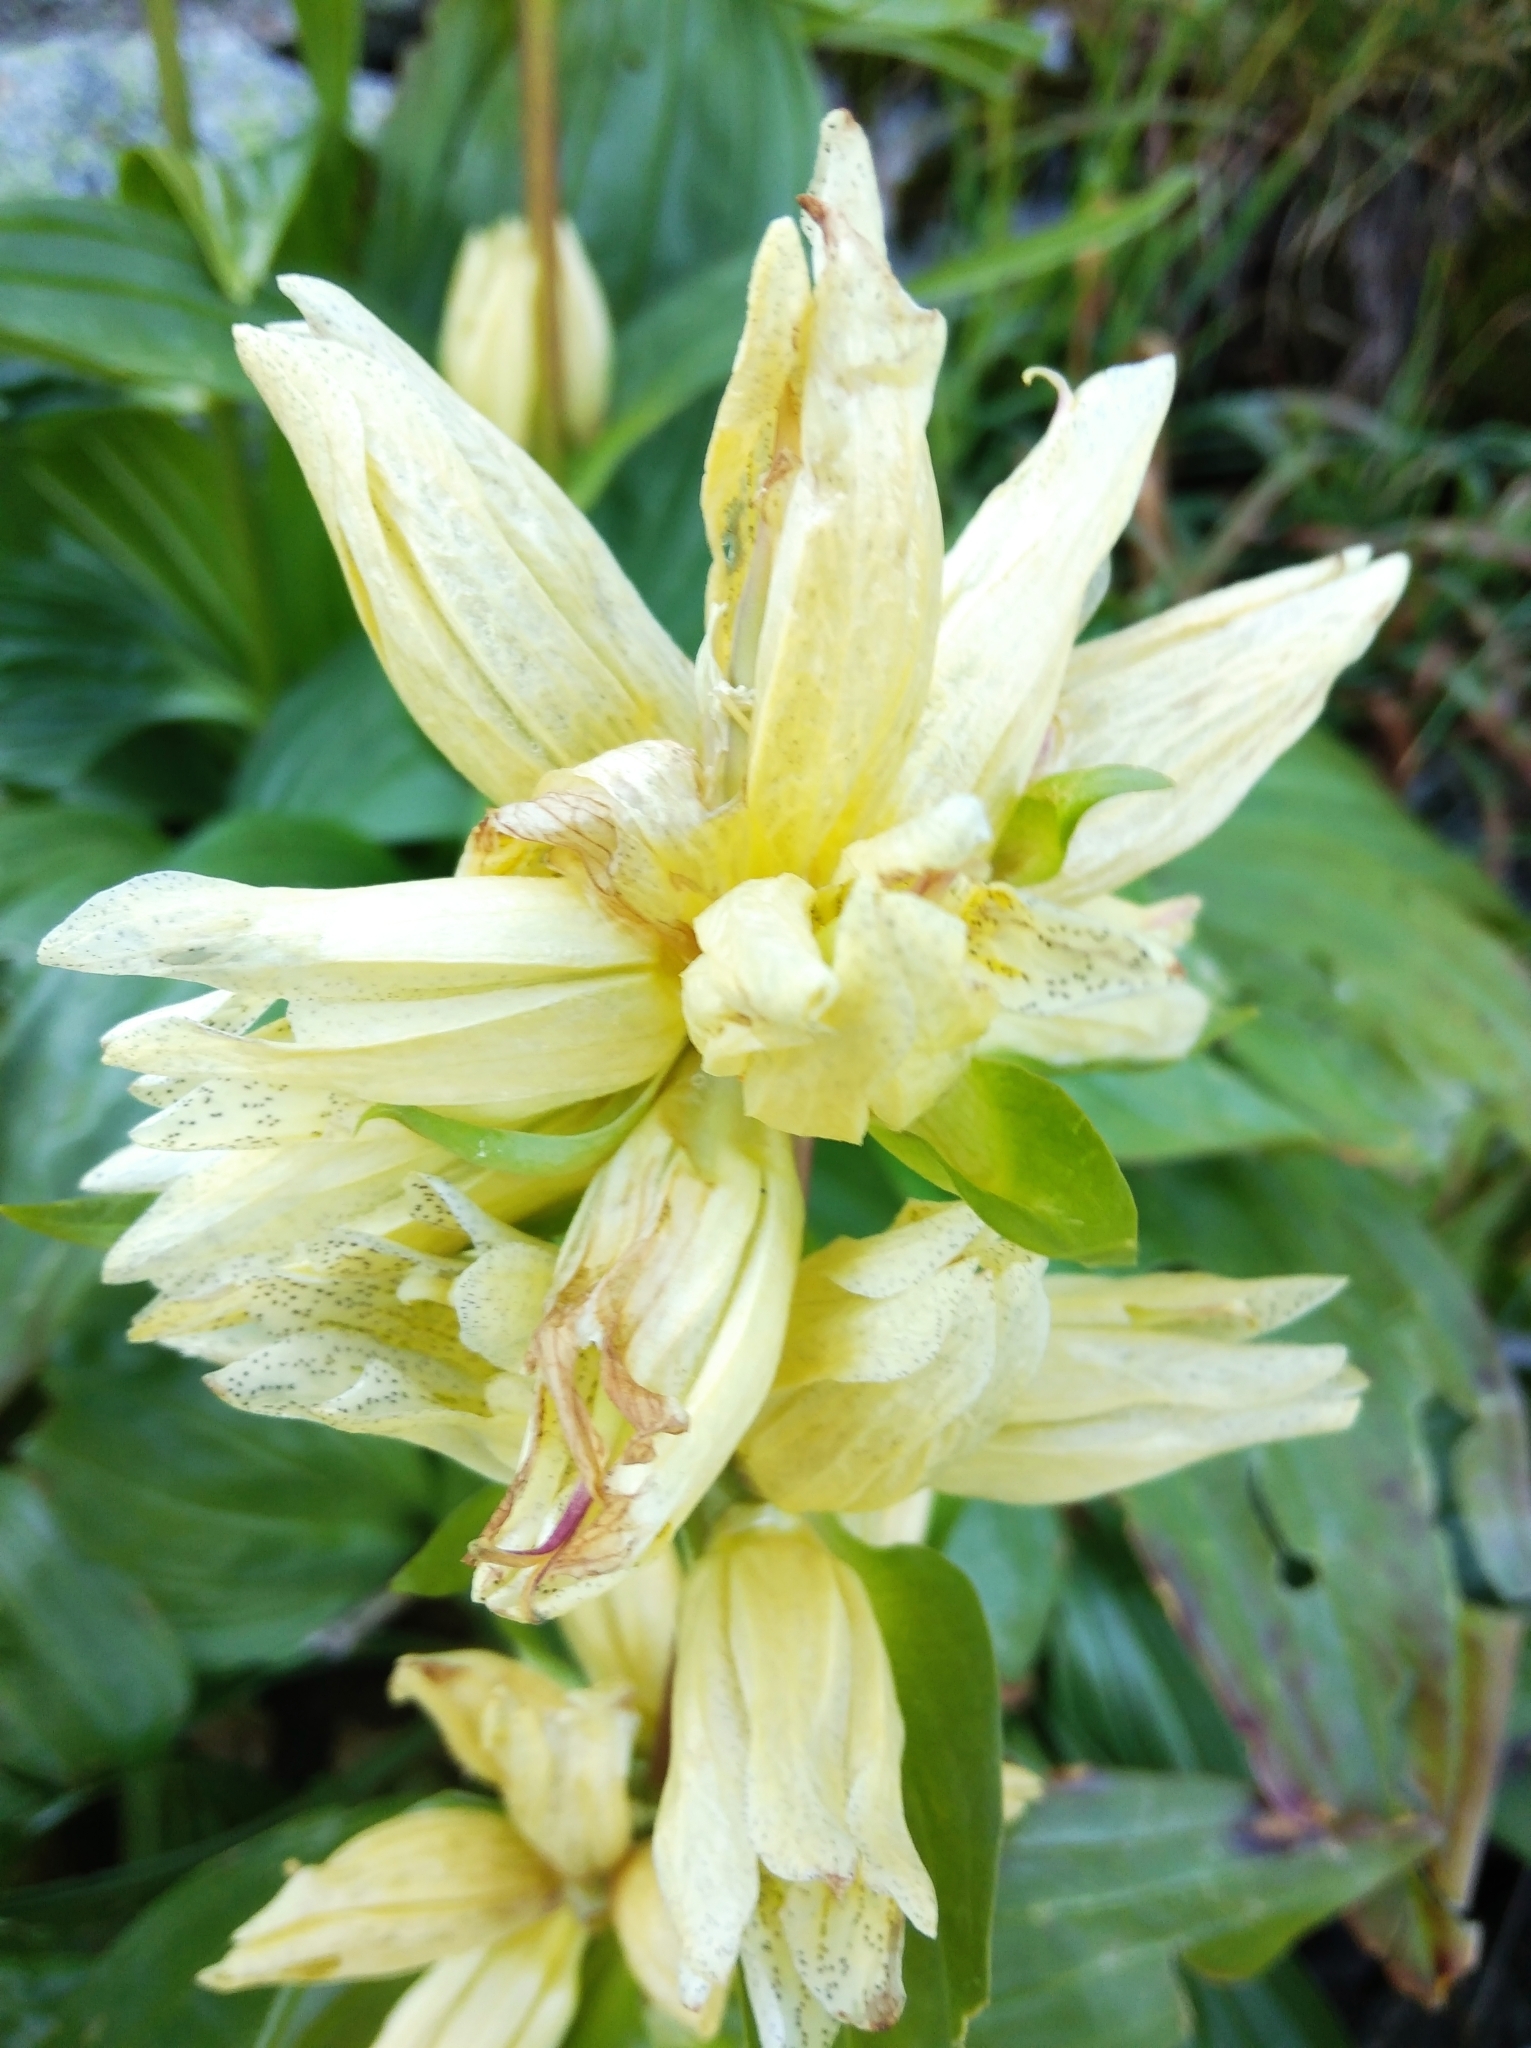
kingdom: Plantae
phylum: Tracheophyta
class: Magnoliopsida
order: Gentianales
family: Gentianaceae
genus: Gentiana
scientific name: Gentiana burseri
